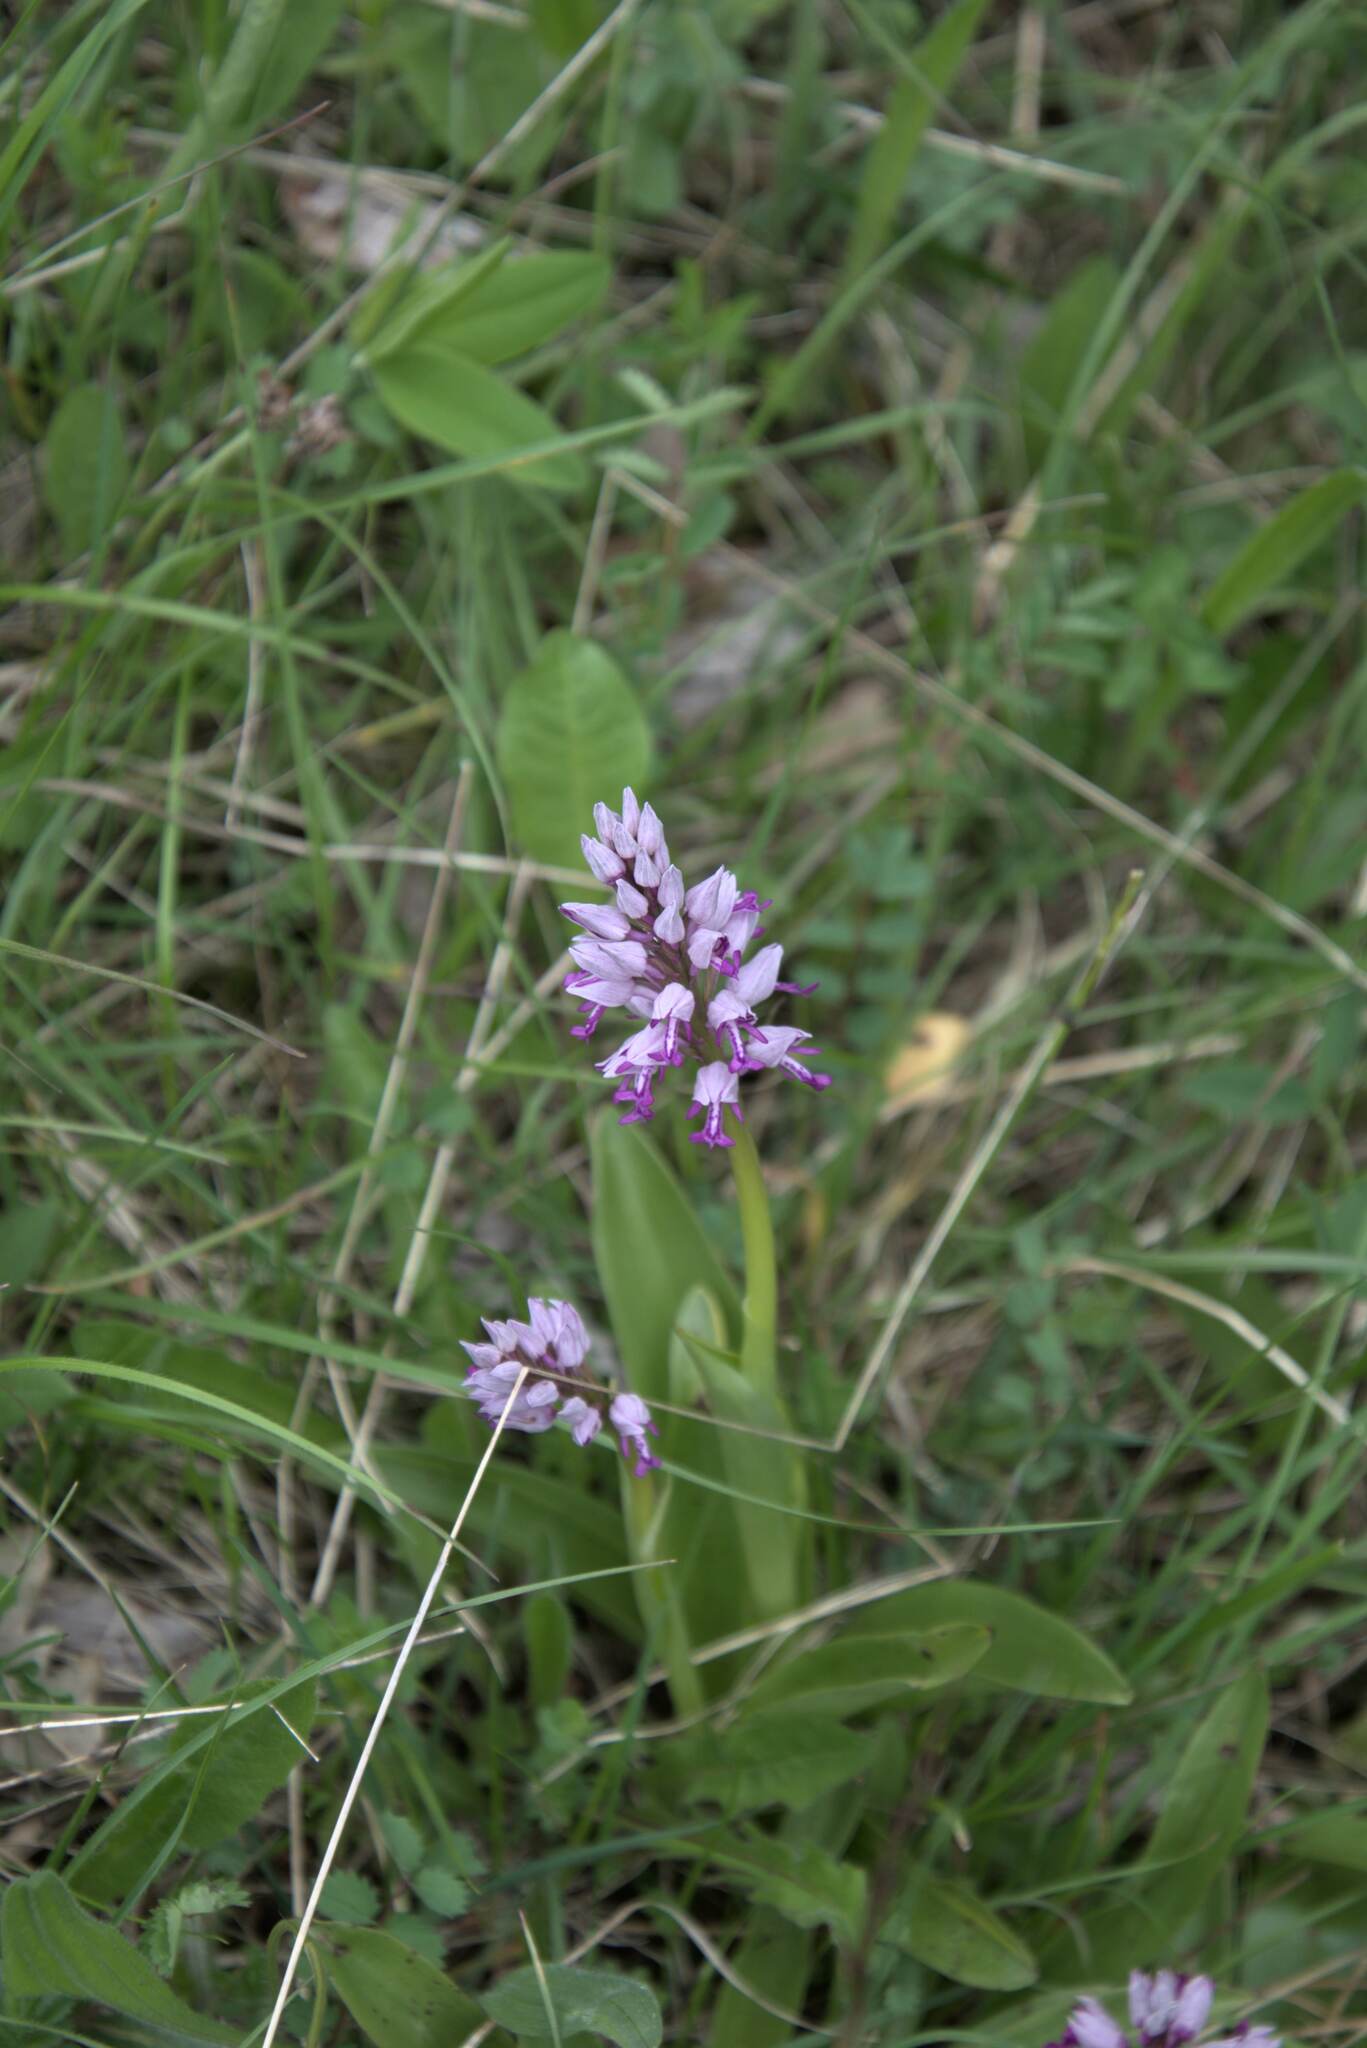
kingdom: Plantae
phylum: Tracheophyta
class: Liliopsida
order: Asparagales
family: Orchidaceae
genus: Orchis
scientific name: Orchis militaris
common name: Military orchid
